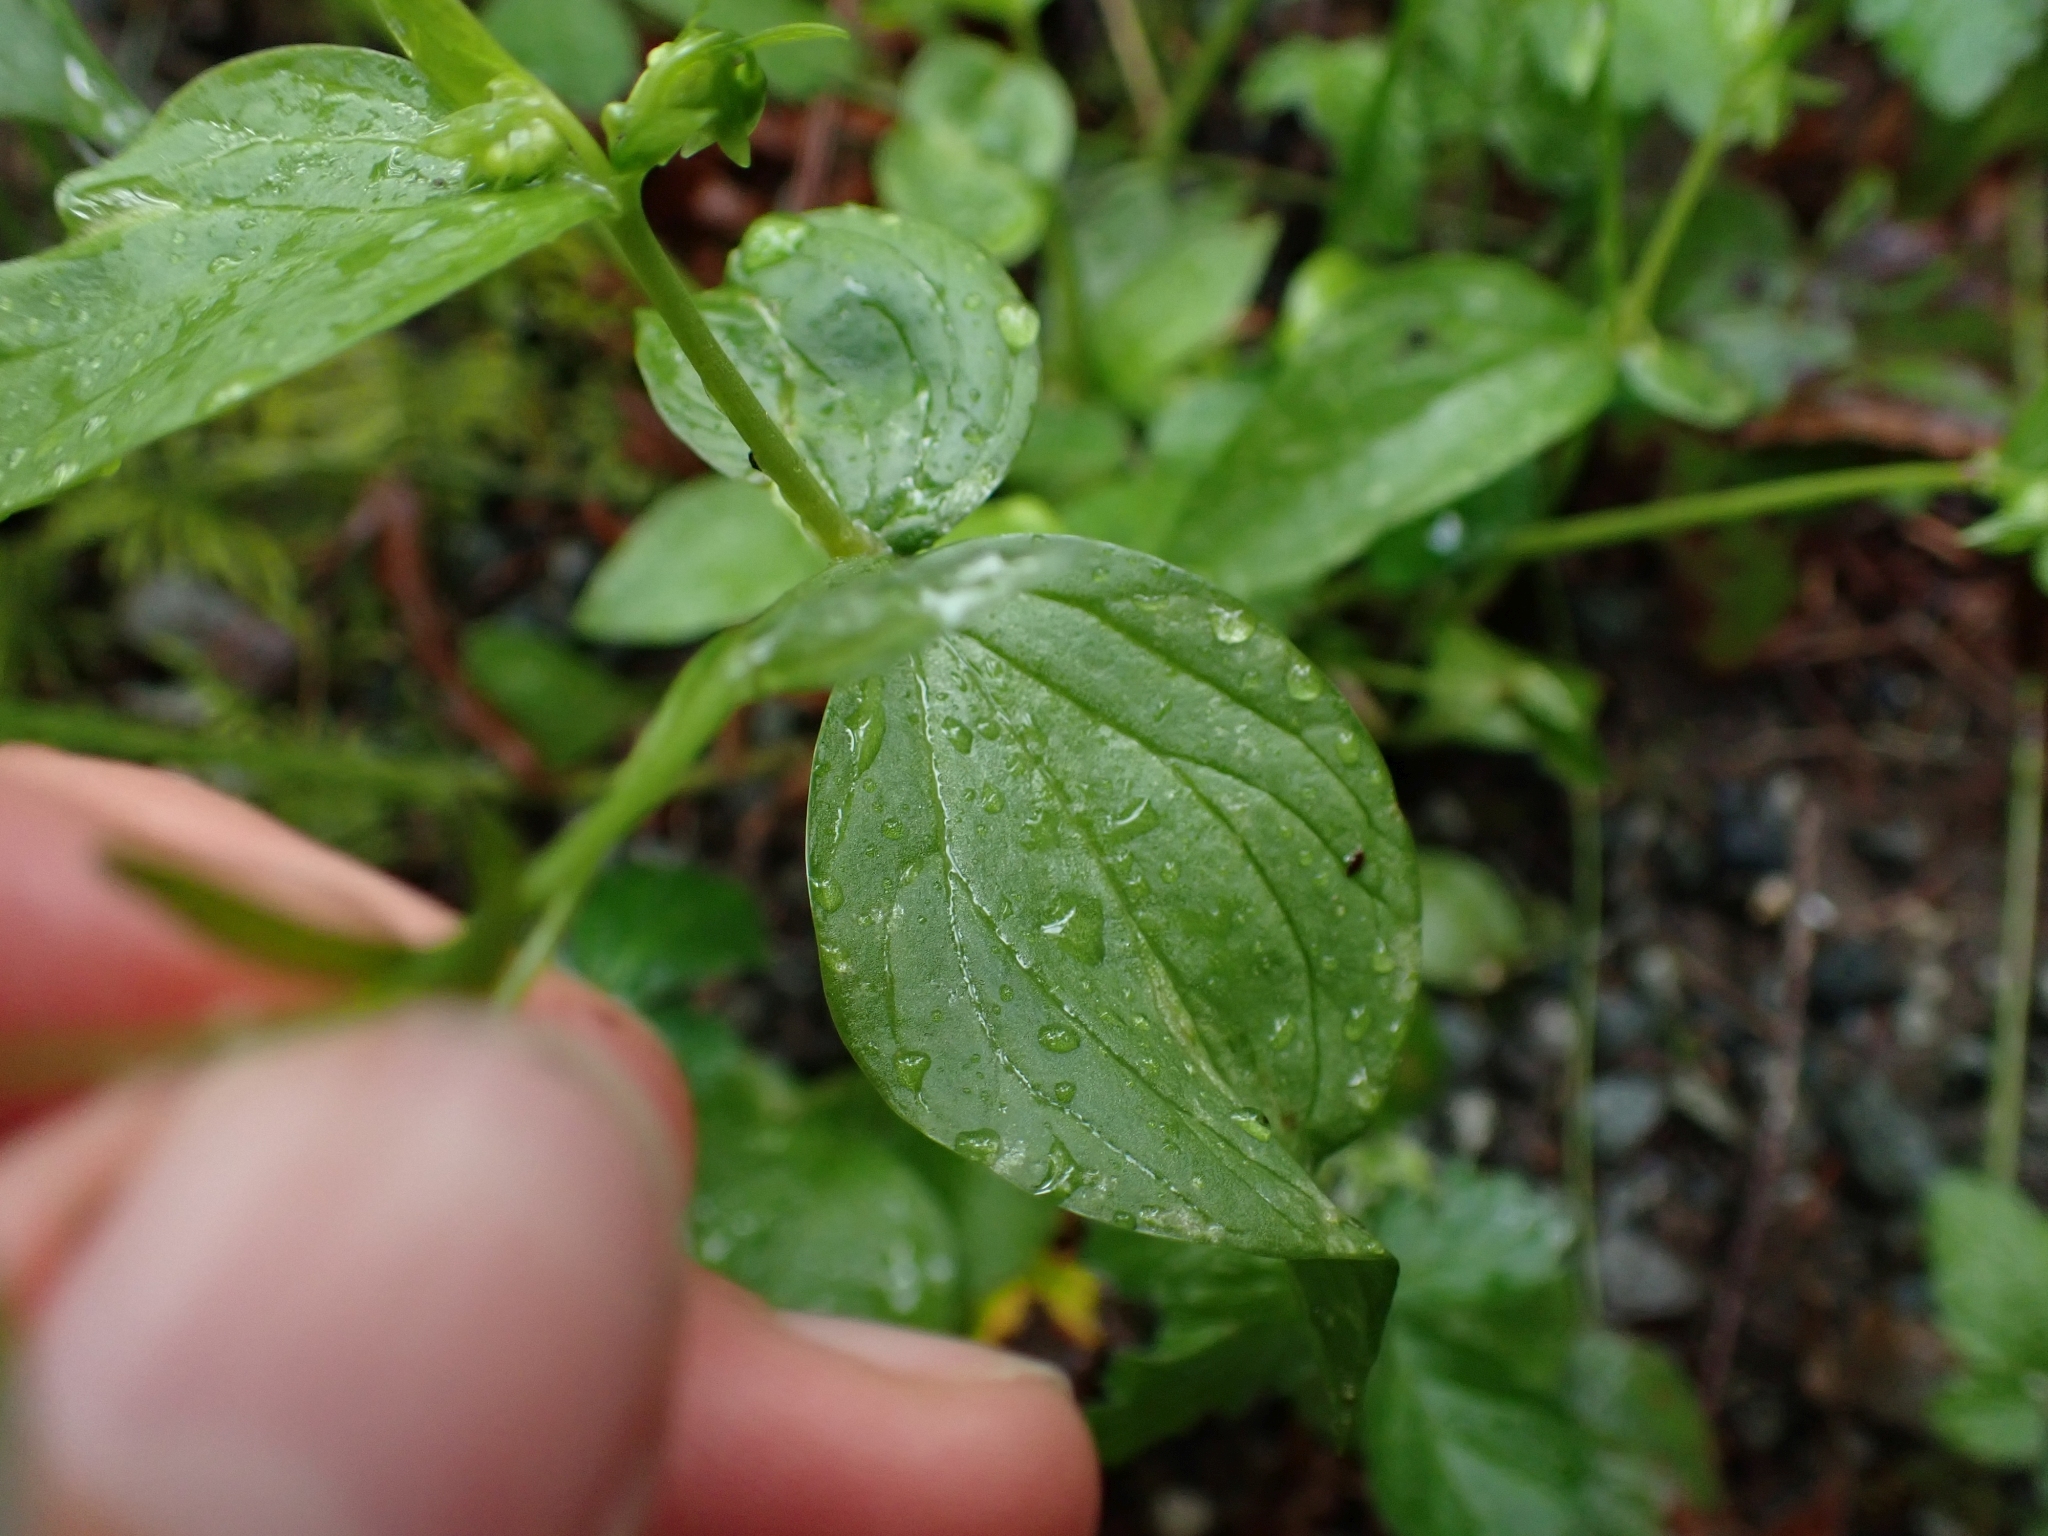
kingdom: Plantae
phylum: Tracheophyta
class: Magnoliopsida
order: Caryophyllales
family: Montiaceae
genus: Claytonia
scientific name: Claytonia sibirica
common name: Pink purslane
